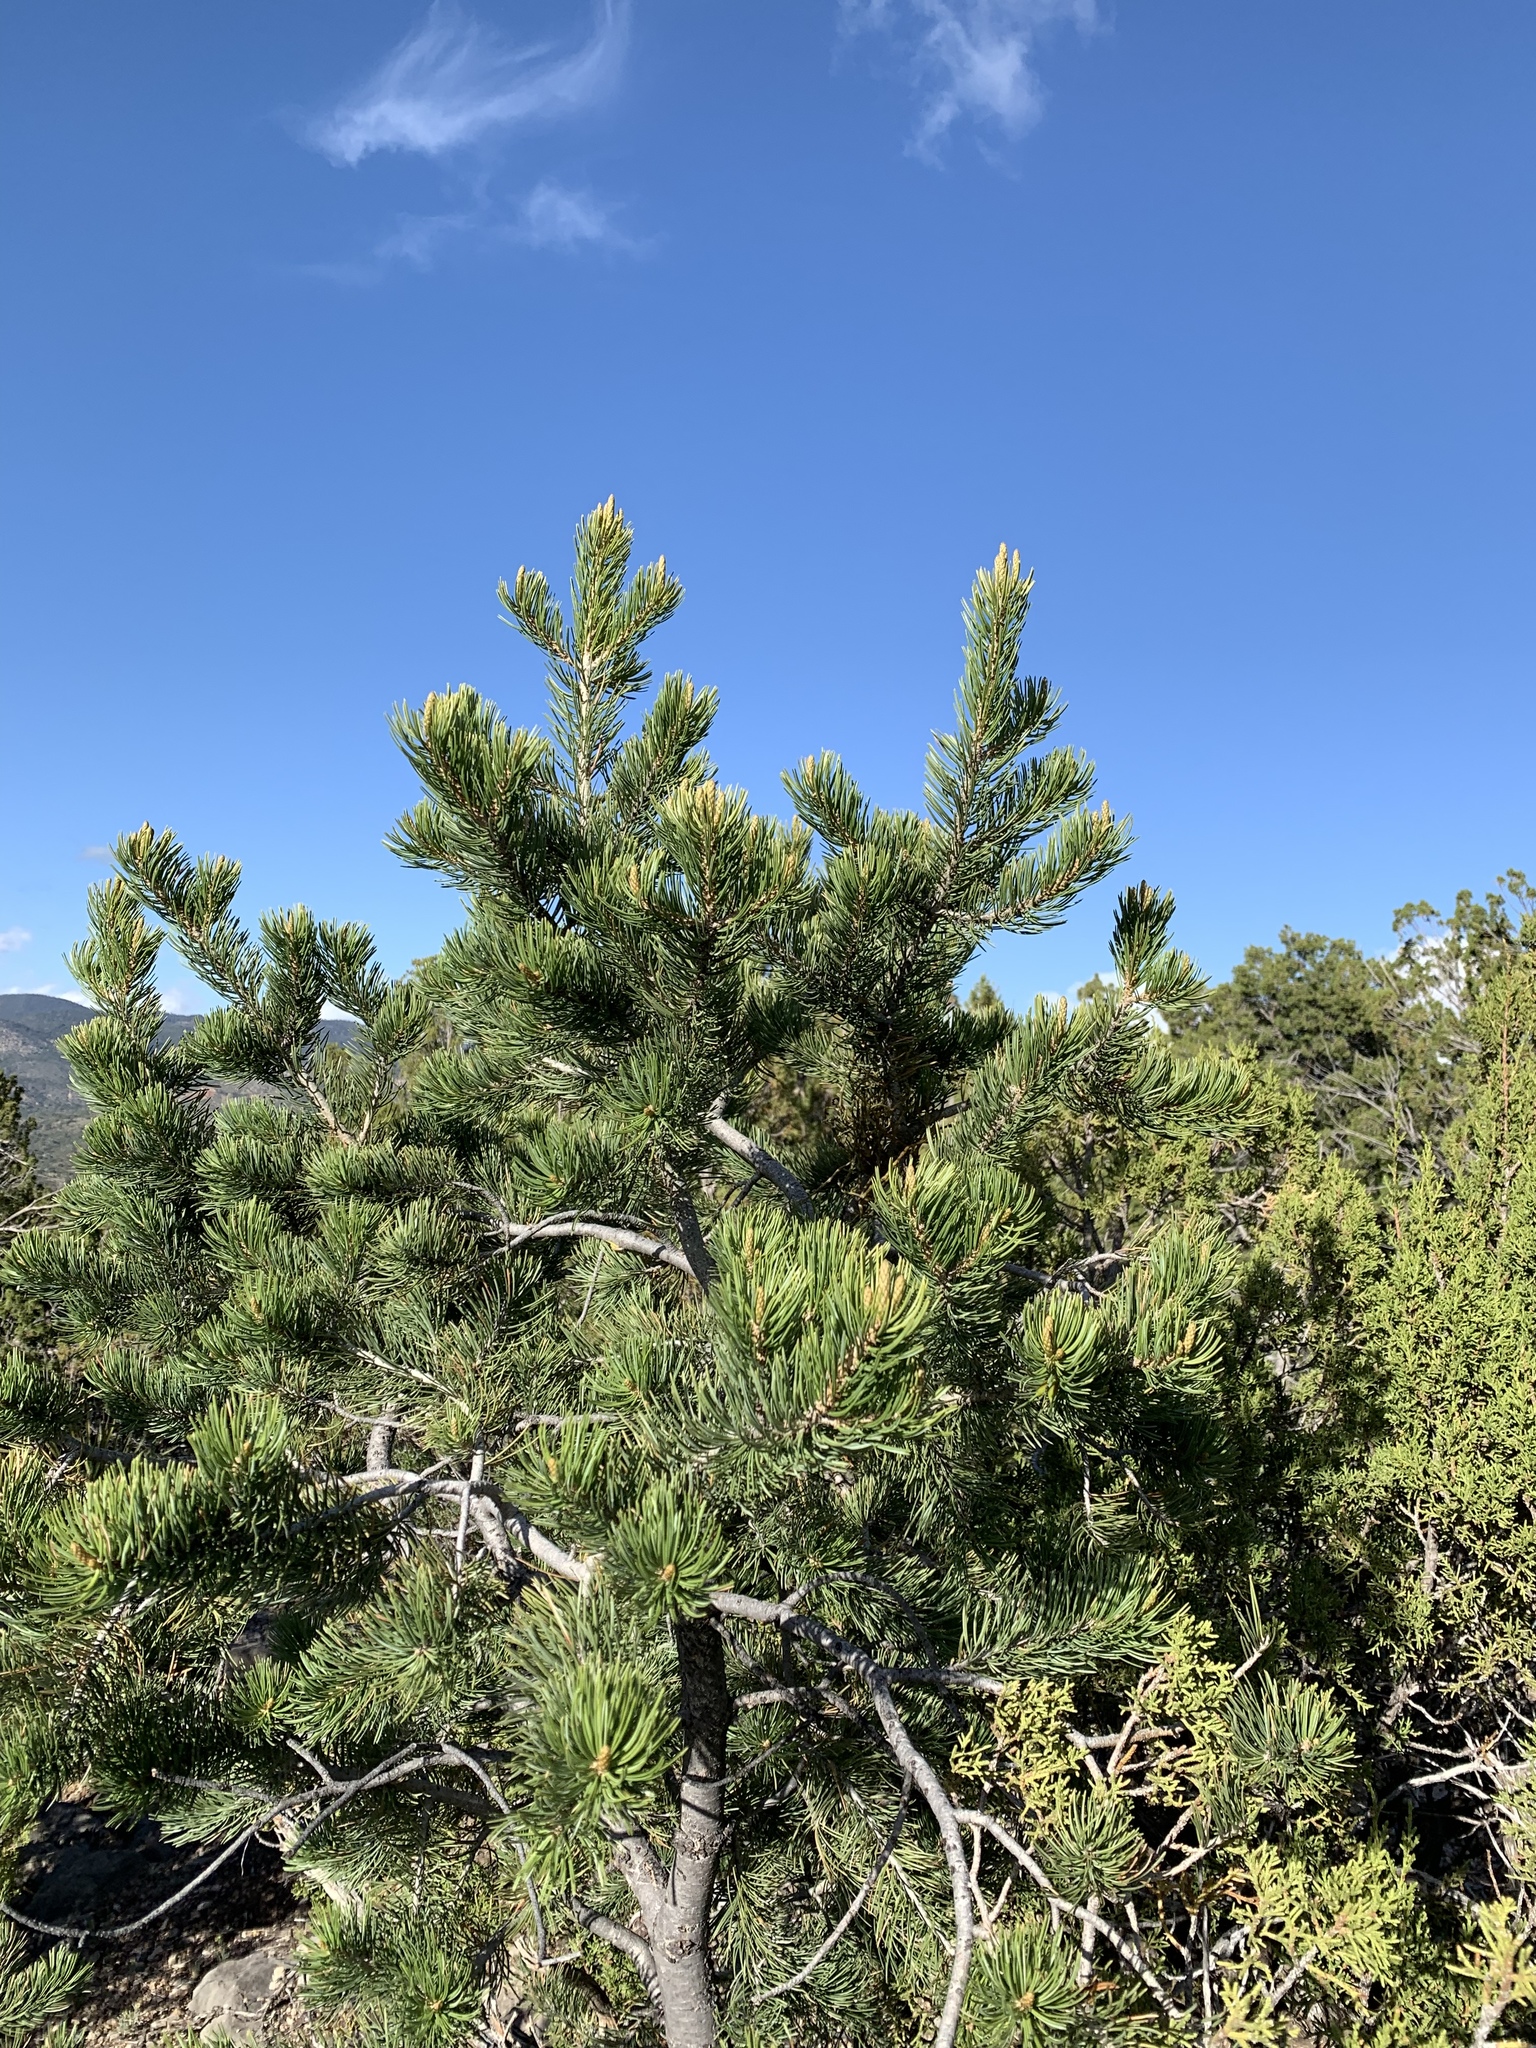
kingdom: Plantae
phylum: Tracheophyta
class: Pinopsida
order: Pinales
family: Pinaceae
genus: Pinus
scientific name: Pinus edulis
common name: Colorado pinyon
